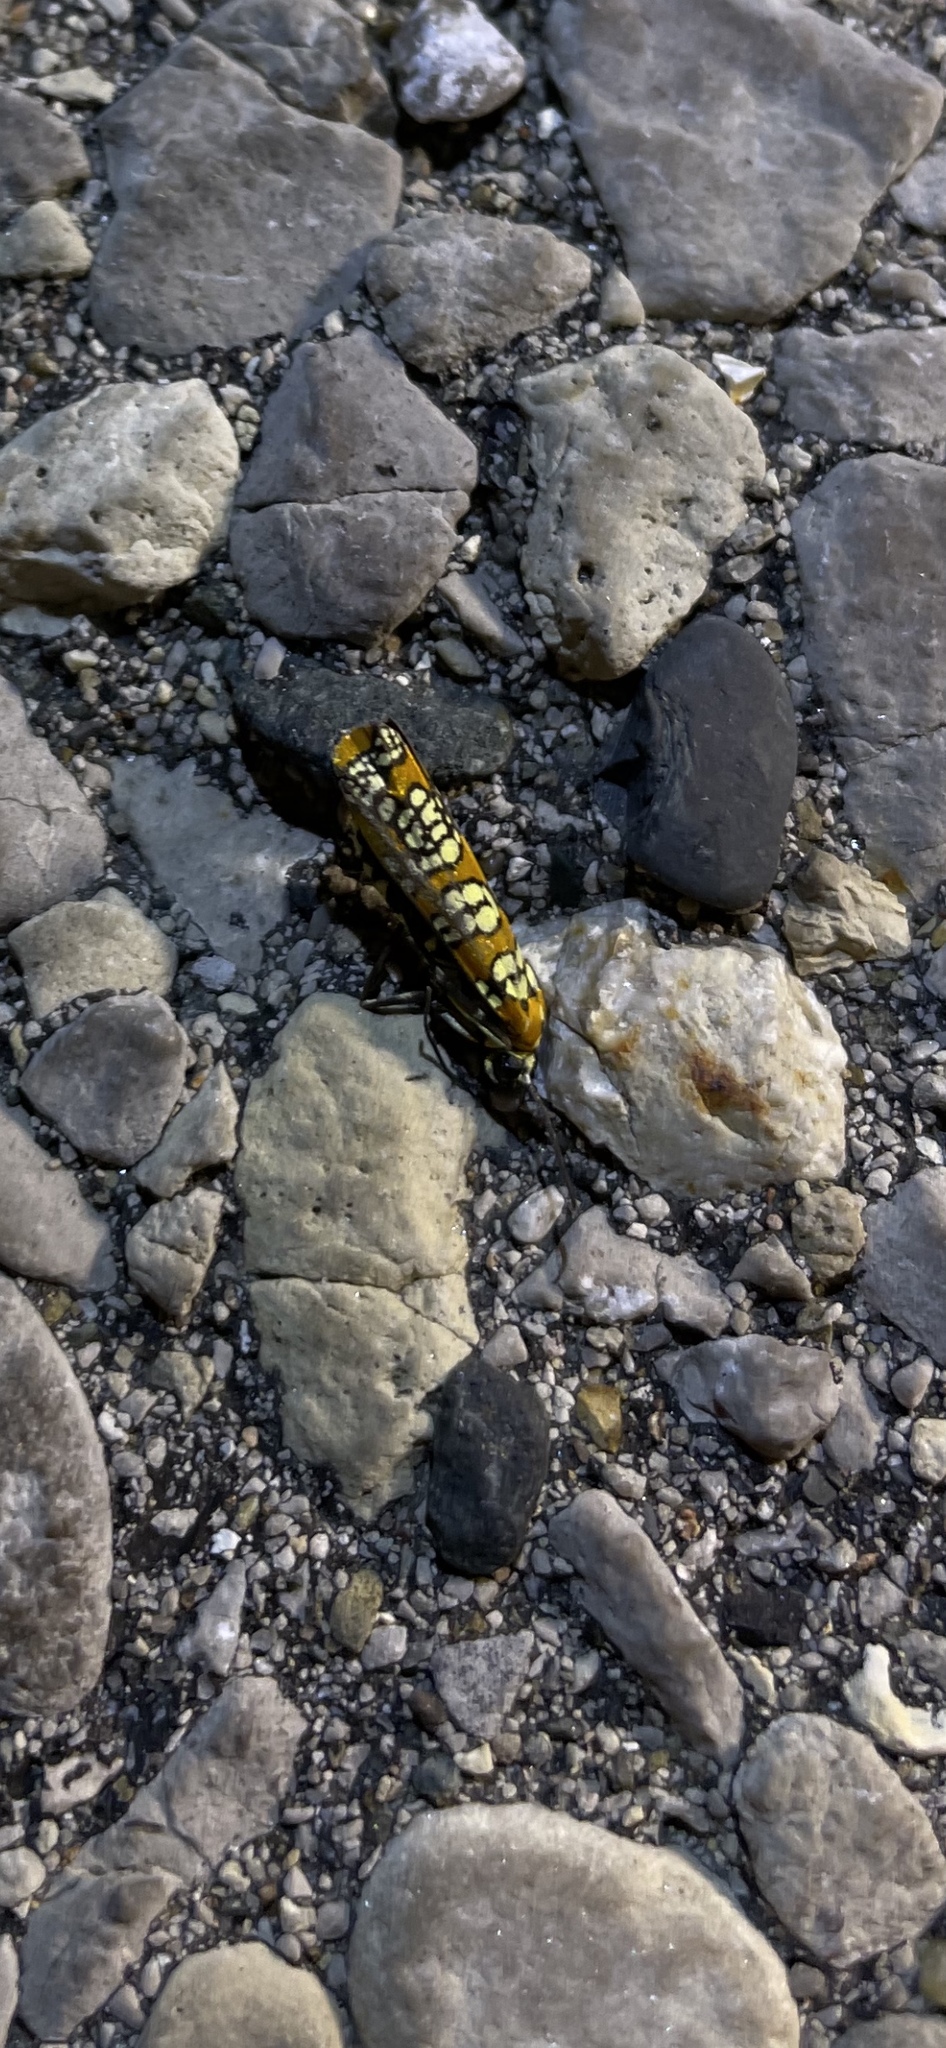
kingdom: Animalia
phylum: Arthropoda
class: Insecta
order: Lepidoptera
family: Attevidae
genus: Atteva
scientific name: Atteva punctella
